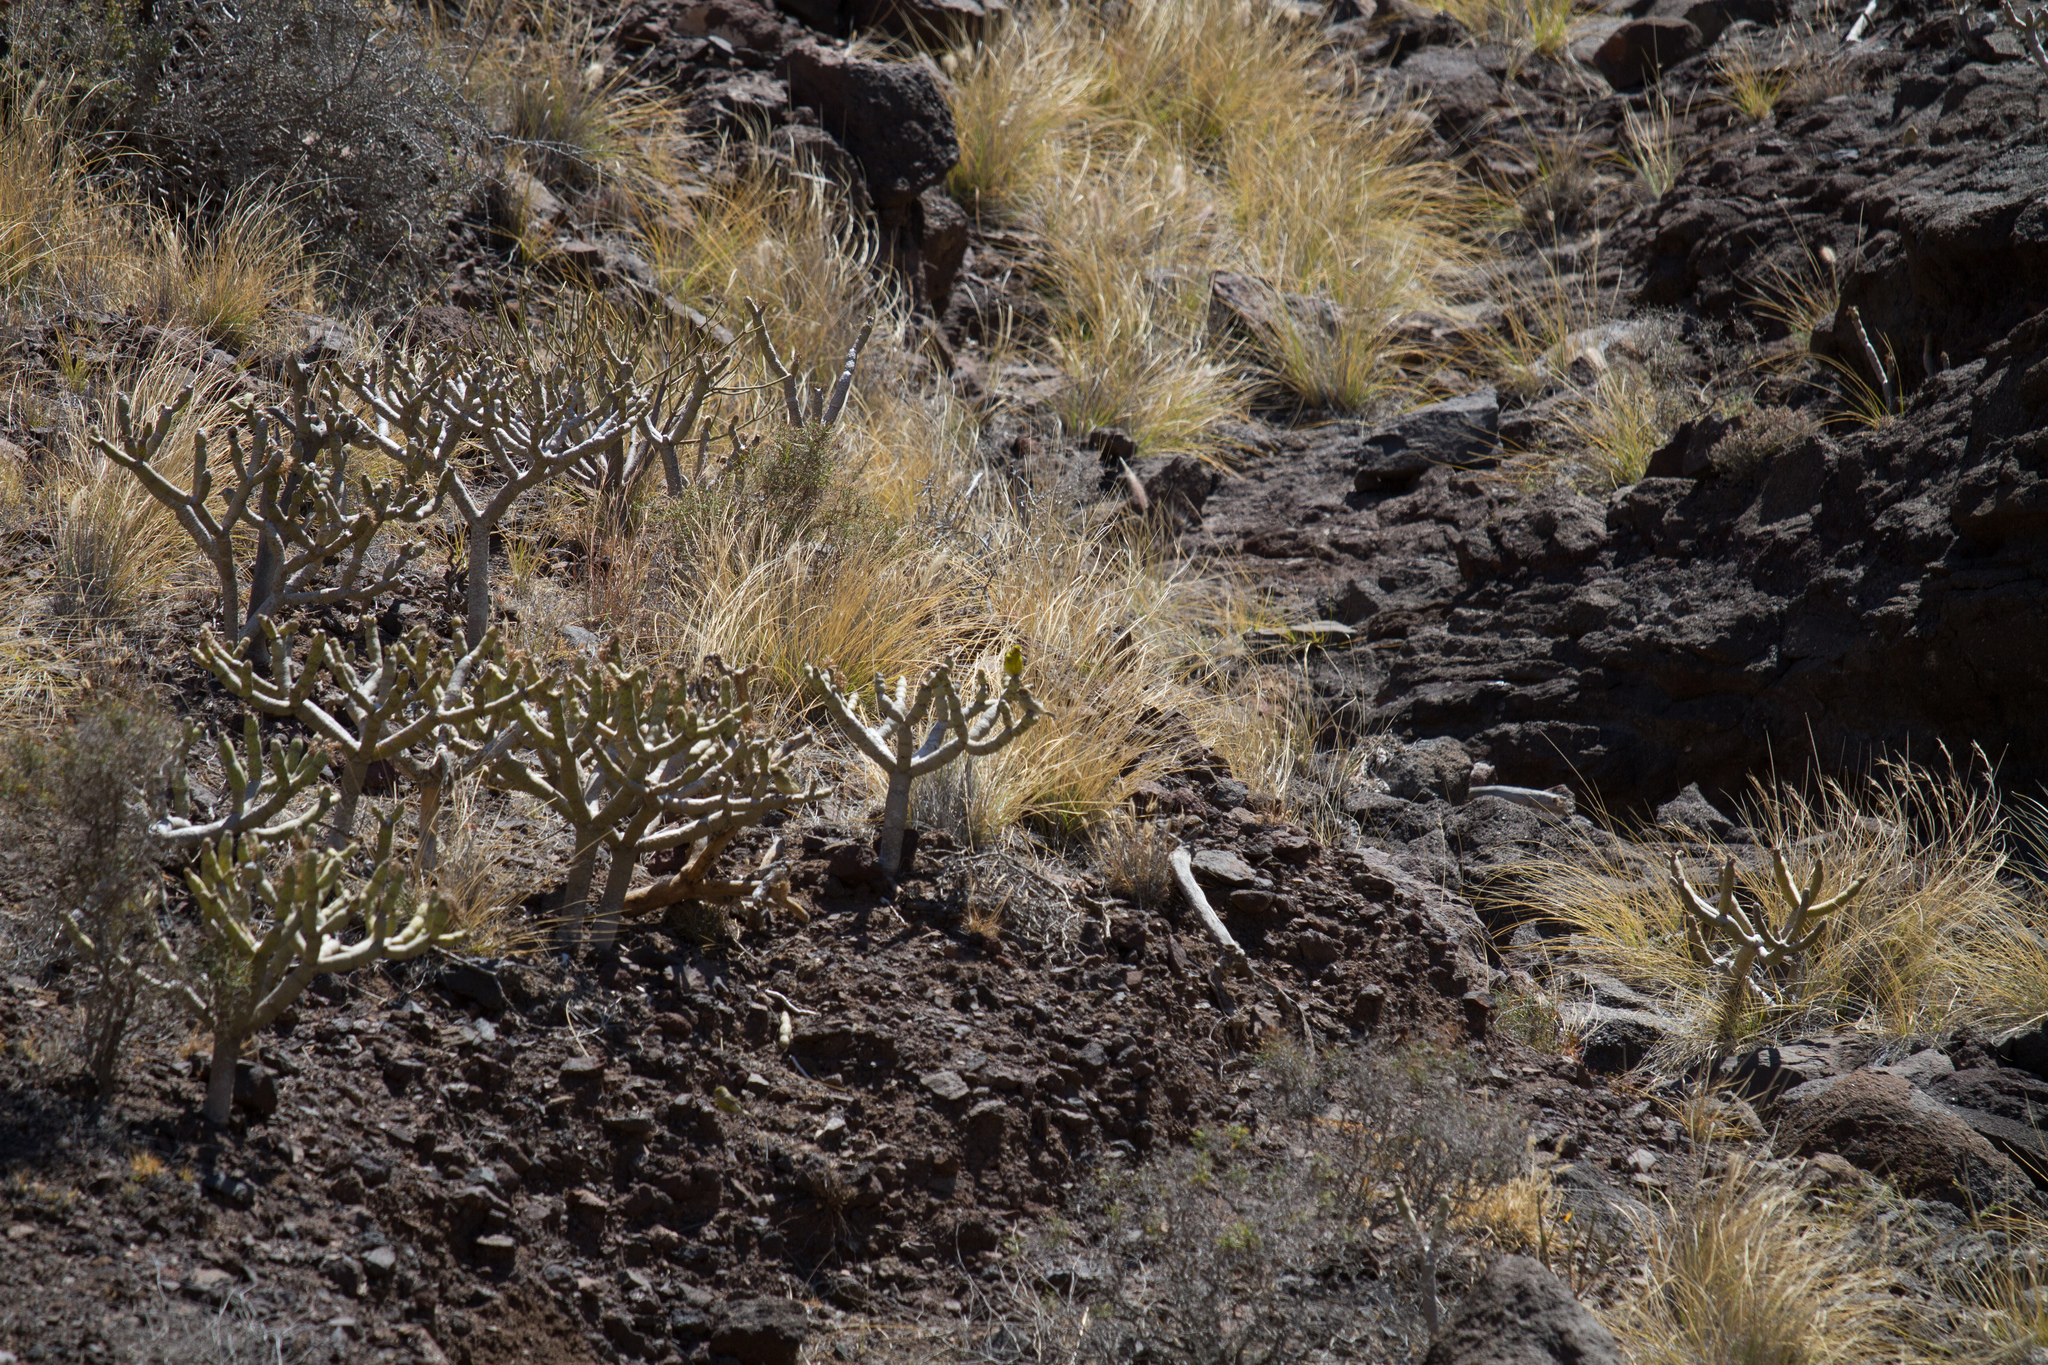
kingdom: Animalia
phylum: Chordata
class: Aves
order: Passeriformes
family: Fringillidae
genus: Serinus
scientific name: Serinus canaria
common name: Atlantic canary
